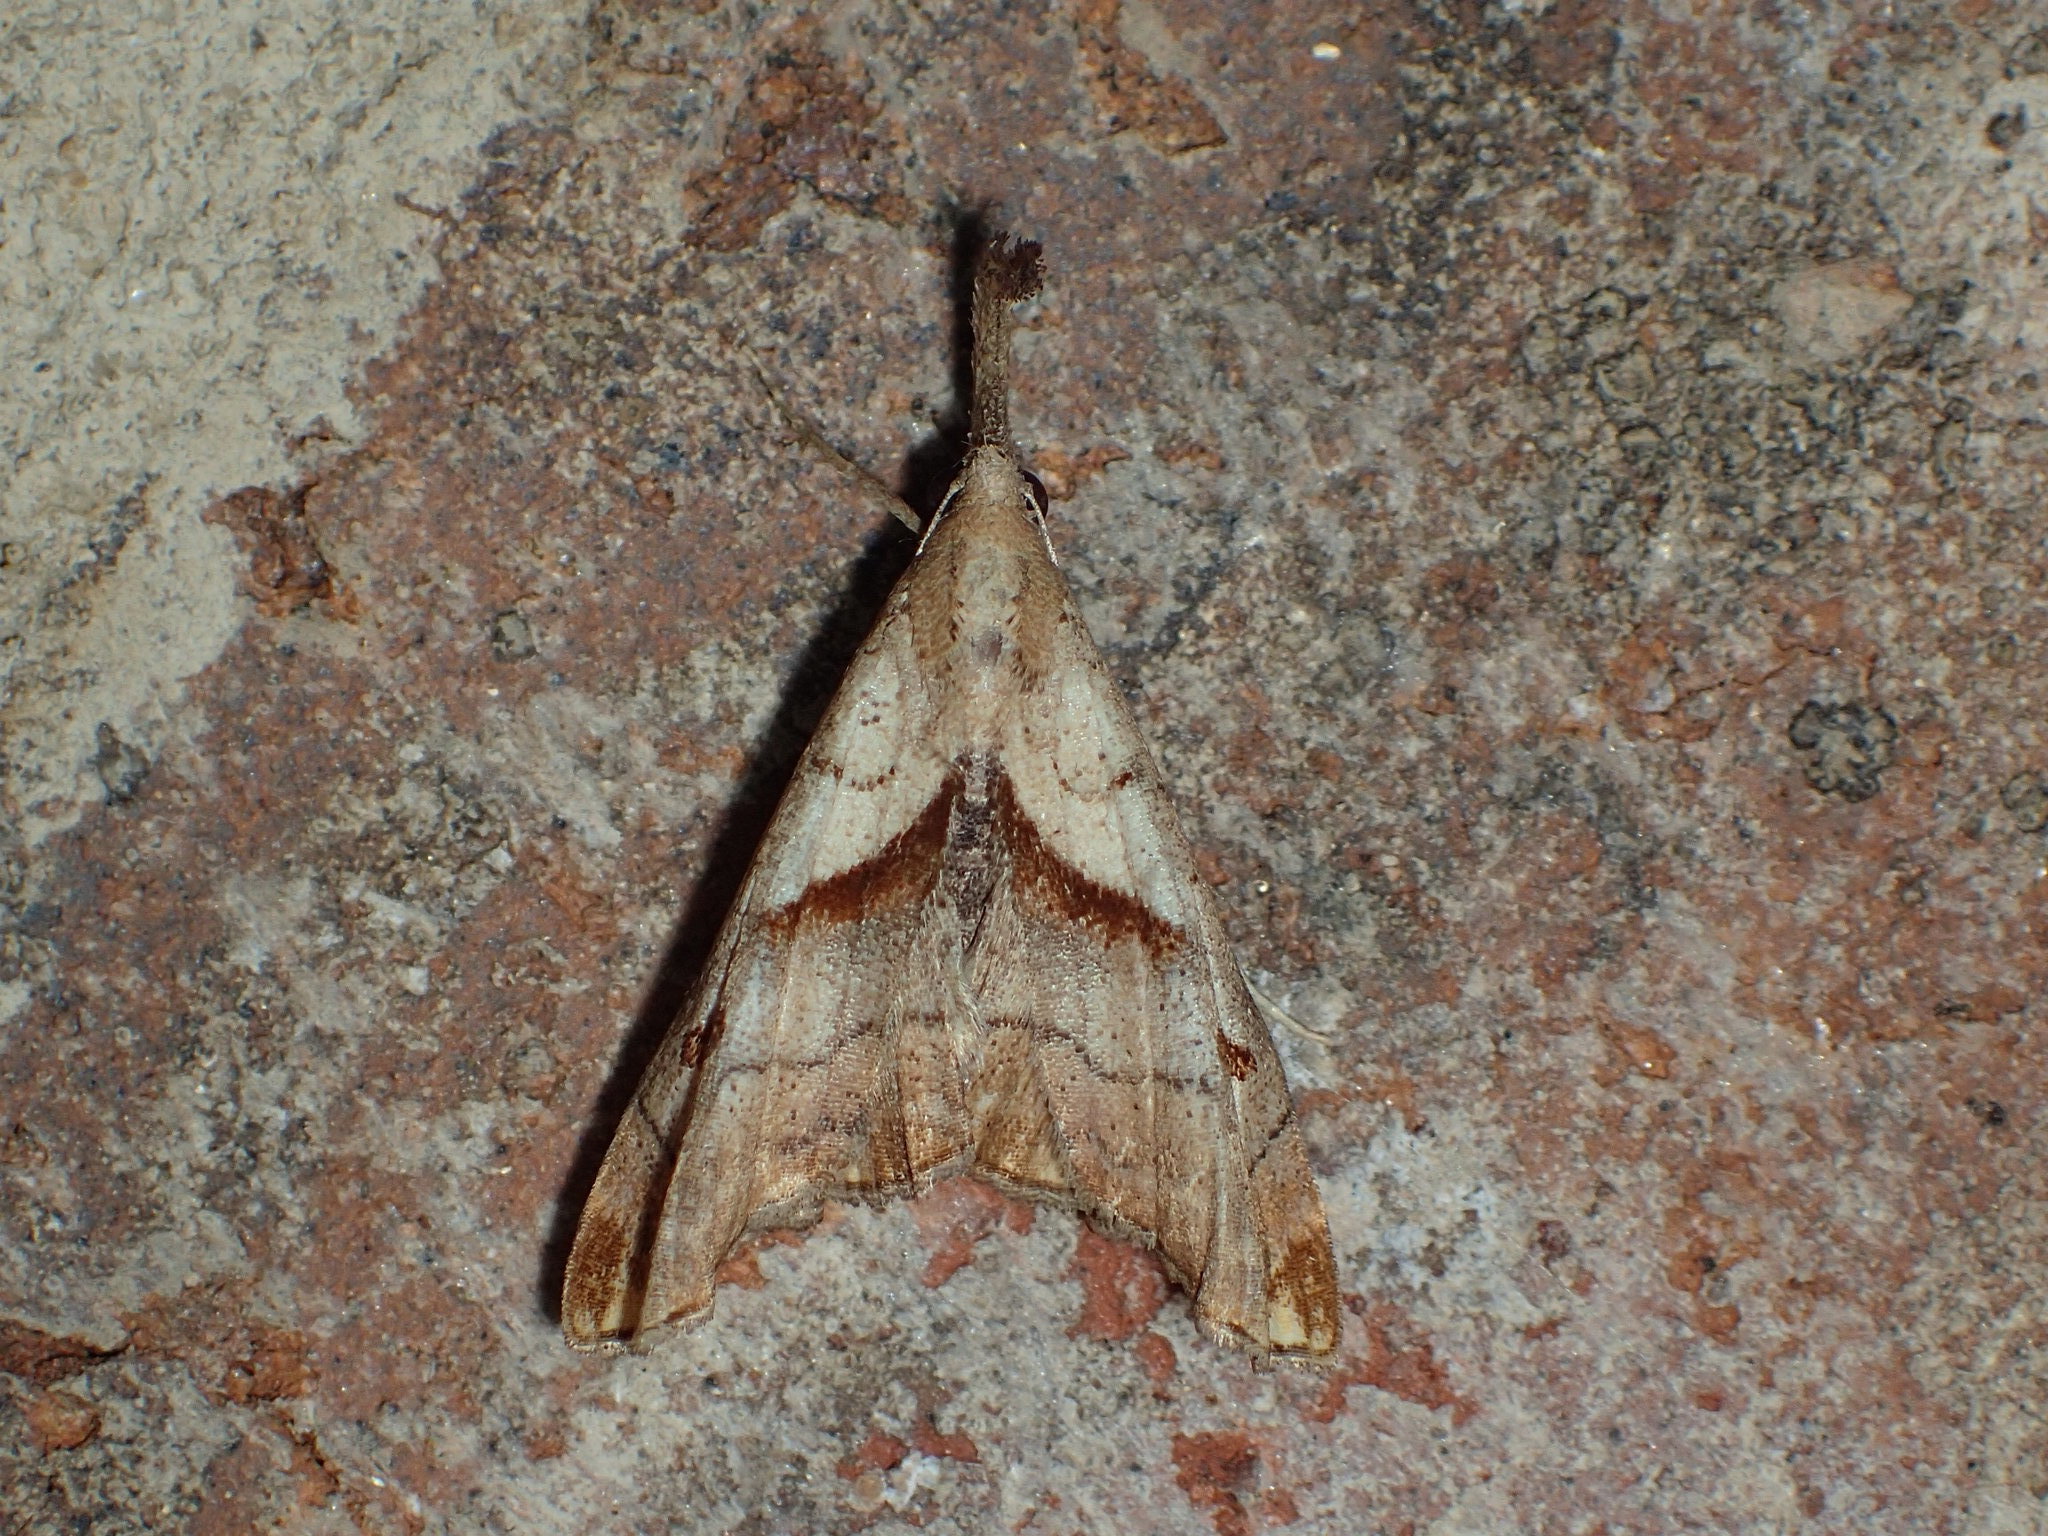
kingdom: Animalia
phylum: Arthropoda
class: Insecta
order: Lepidoptera
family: Erebidae
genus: Palthis
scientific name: Palthis angulalis
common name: Dark-spotted palthis moth
